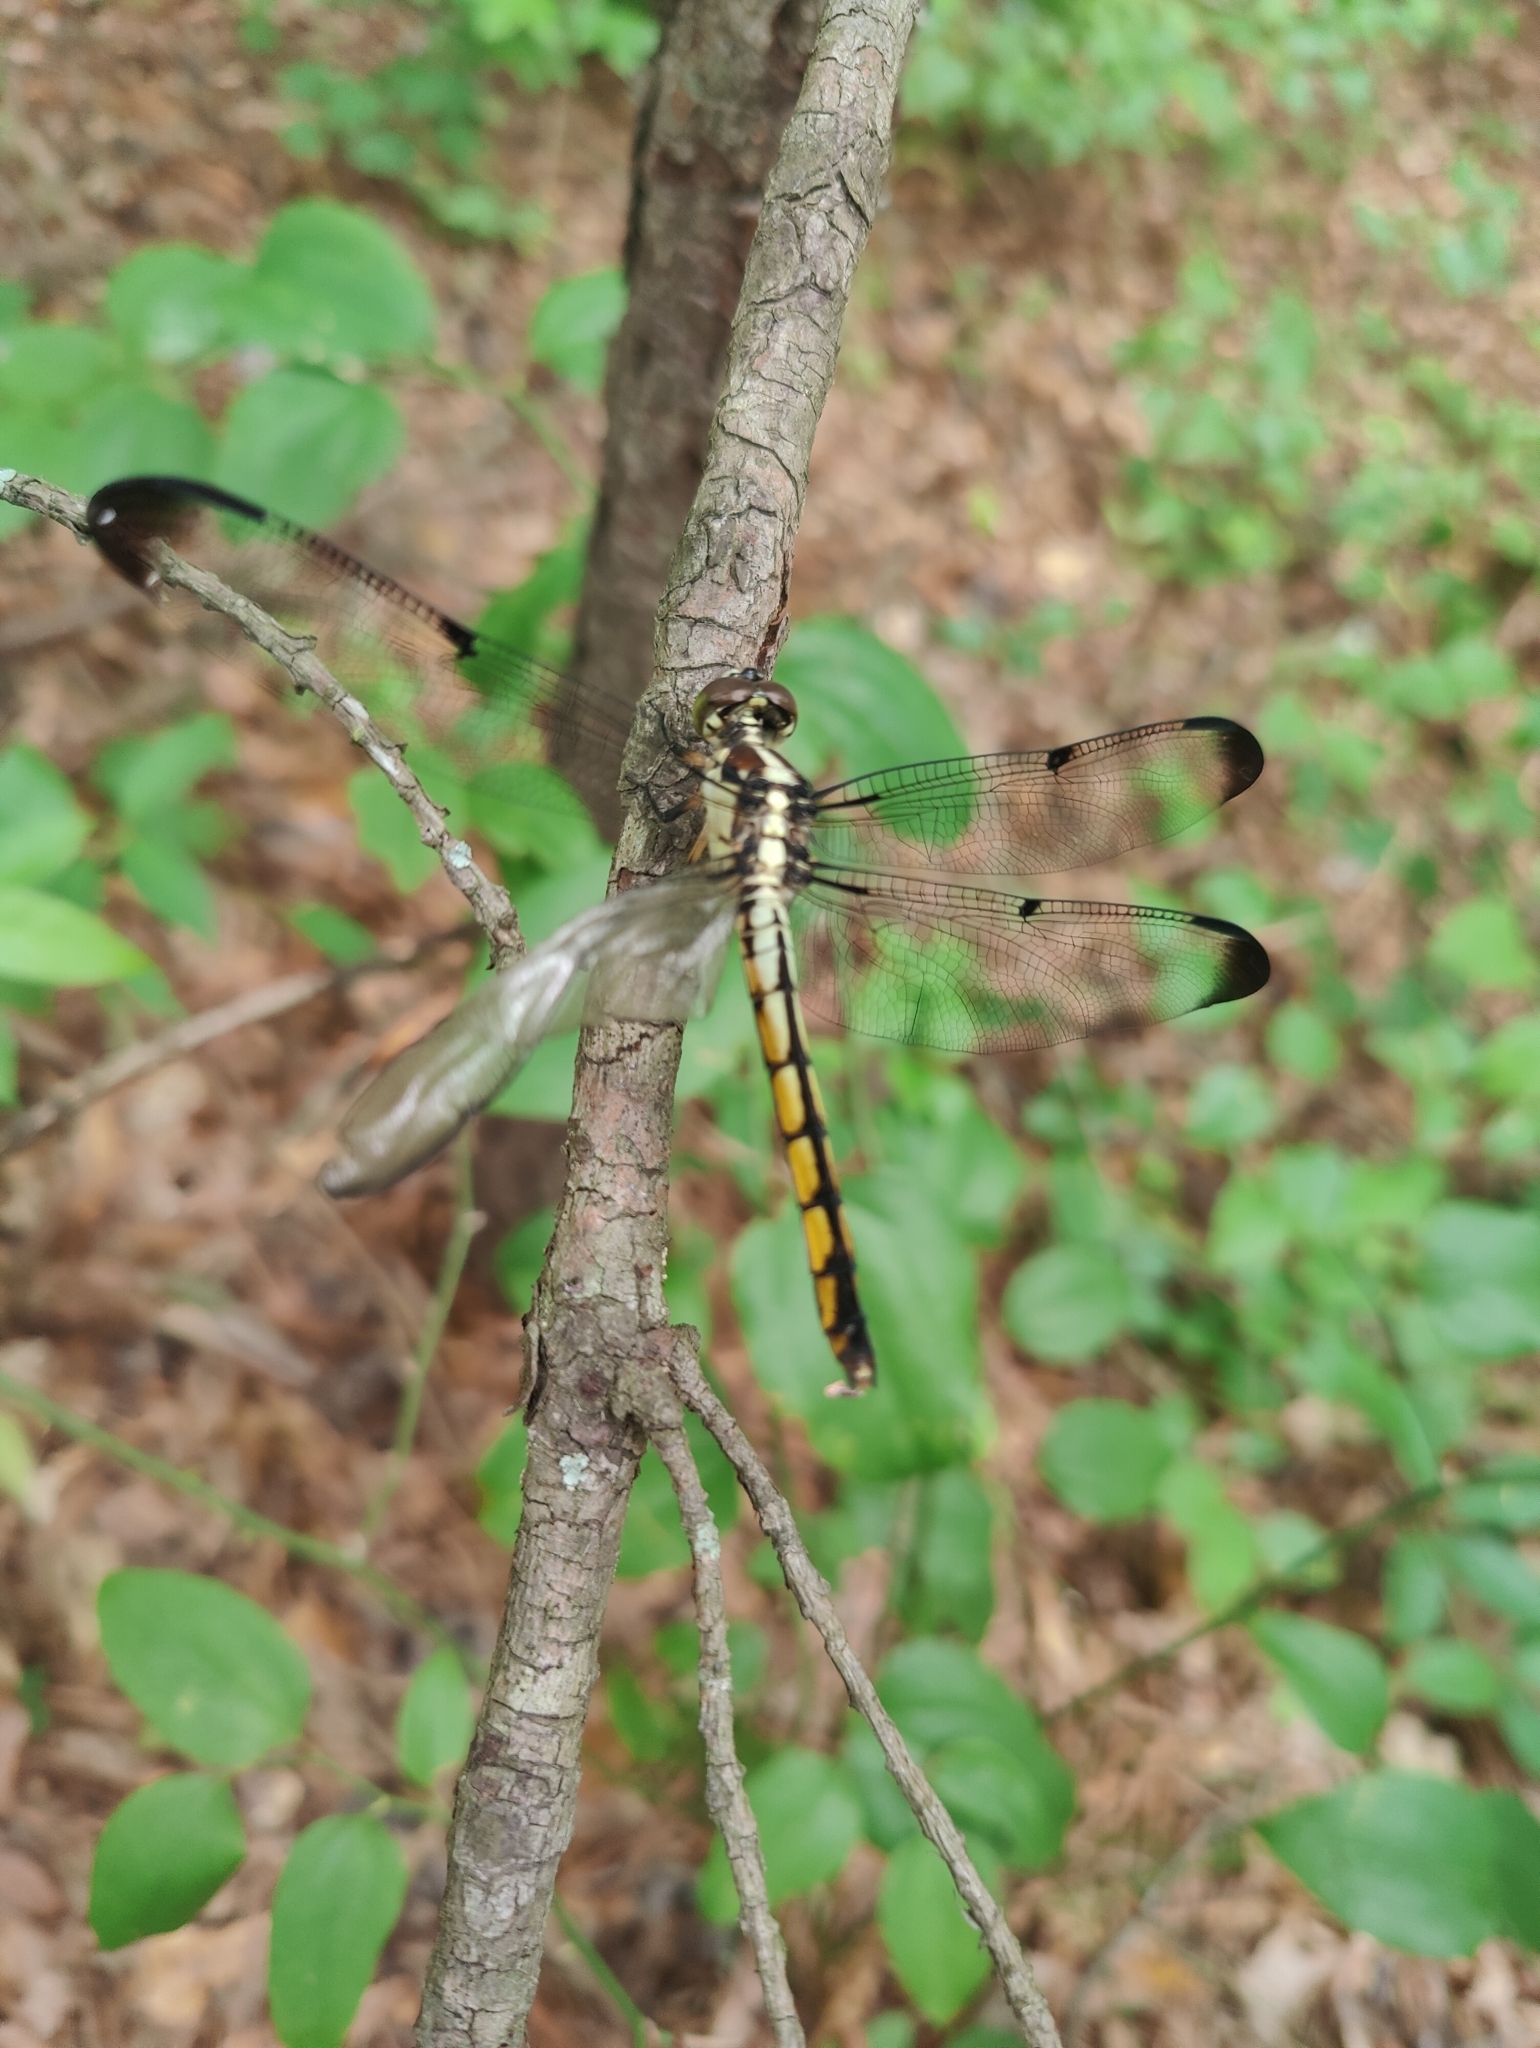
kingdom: Animalia
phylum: Arthropoda
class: Insecta
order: Odonata
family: Libellulidae
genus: Libellula
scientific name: Libellula vibrans
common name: Great blue skimmer
